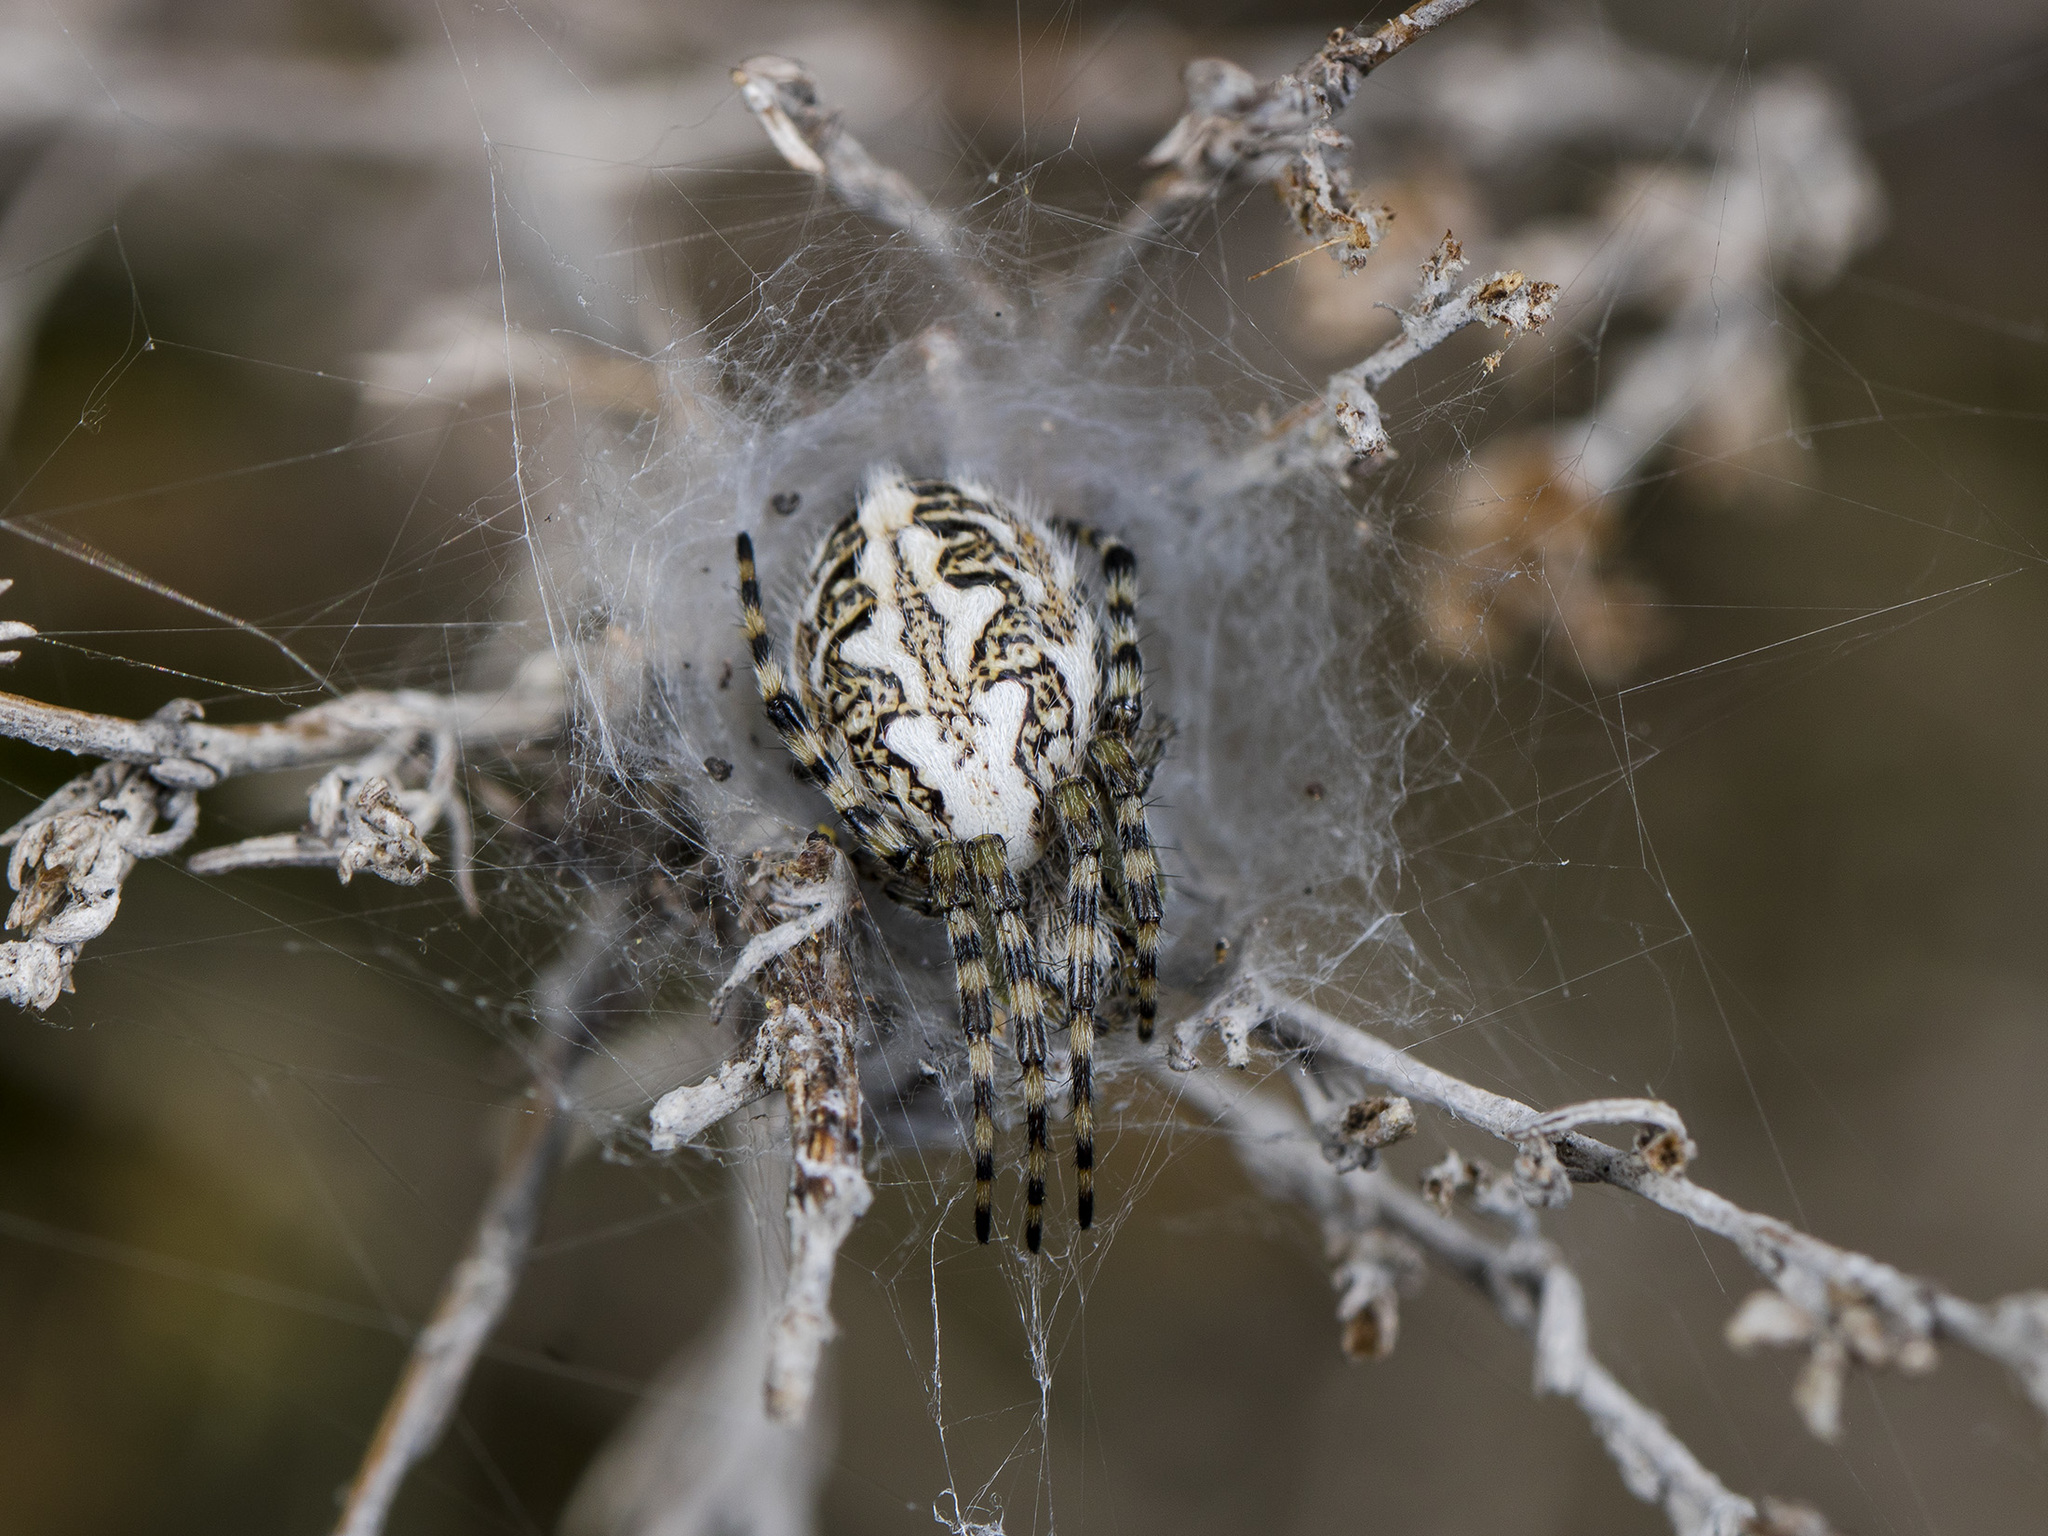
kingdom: Animalia
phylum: Arthropoda
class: Arachnida
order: Araneae
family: Araneidae
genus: Aculepeira
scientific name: Aculepeira armida
